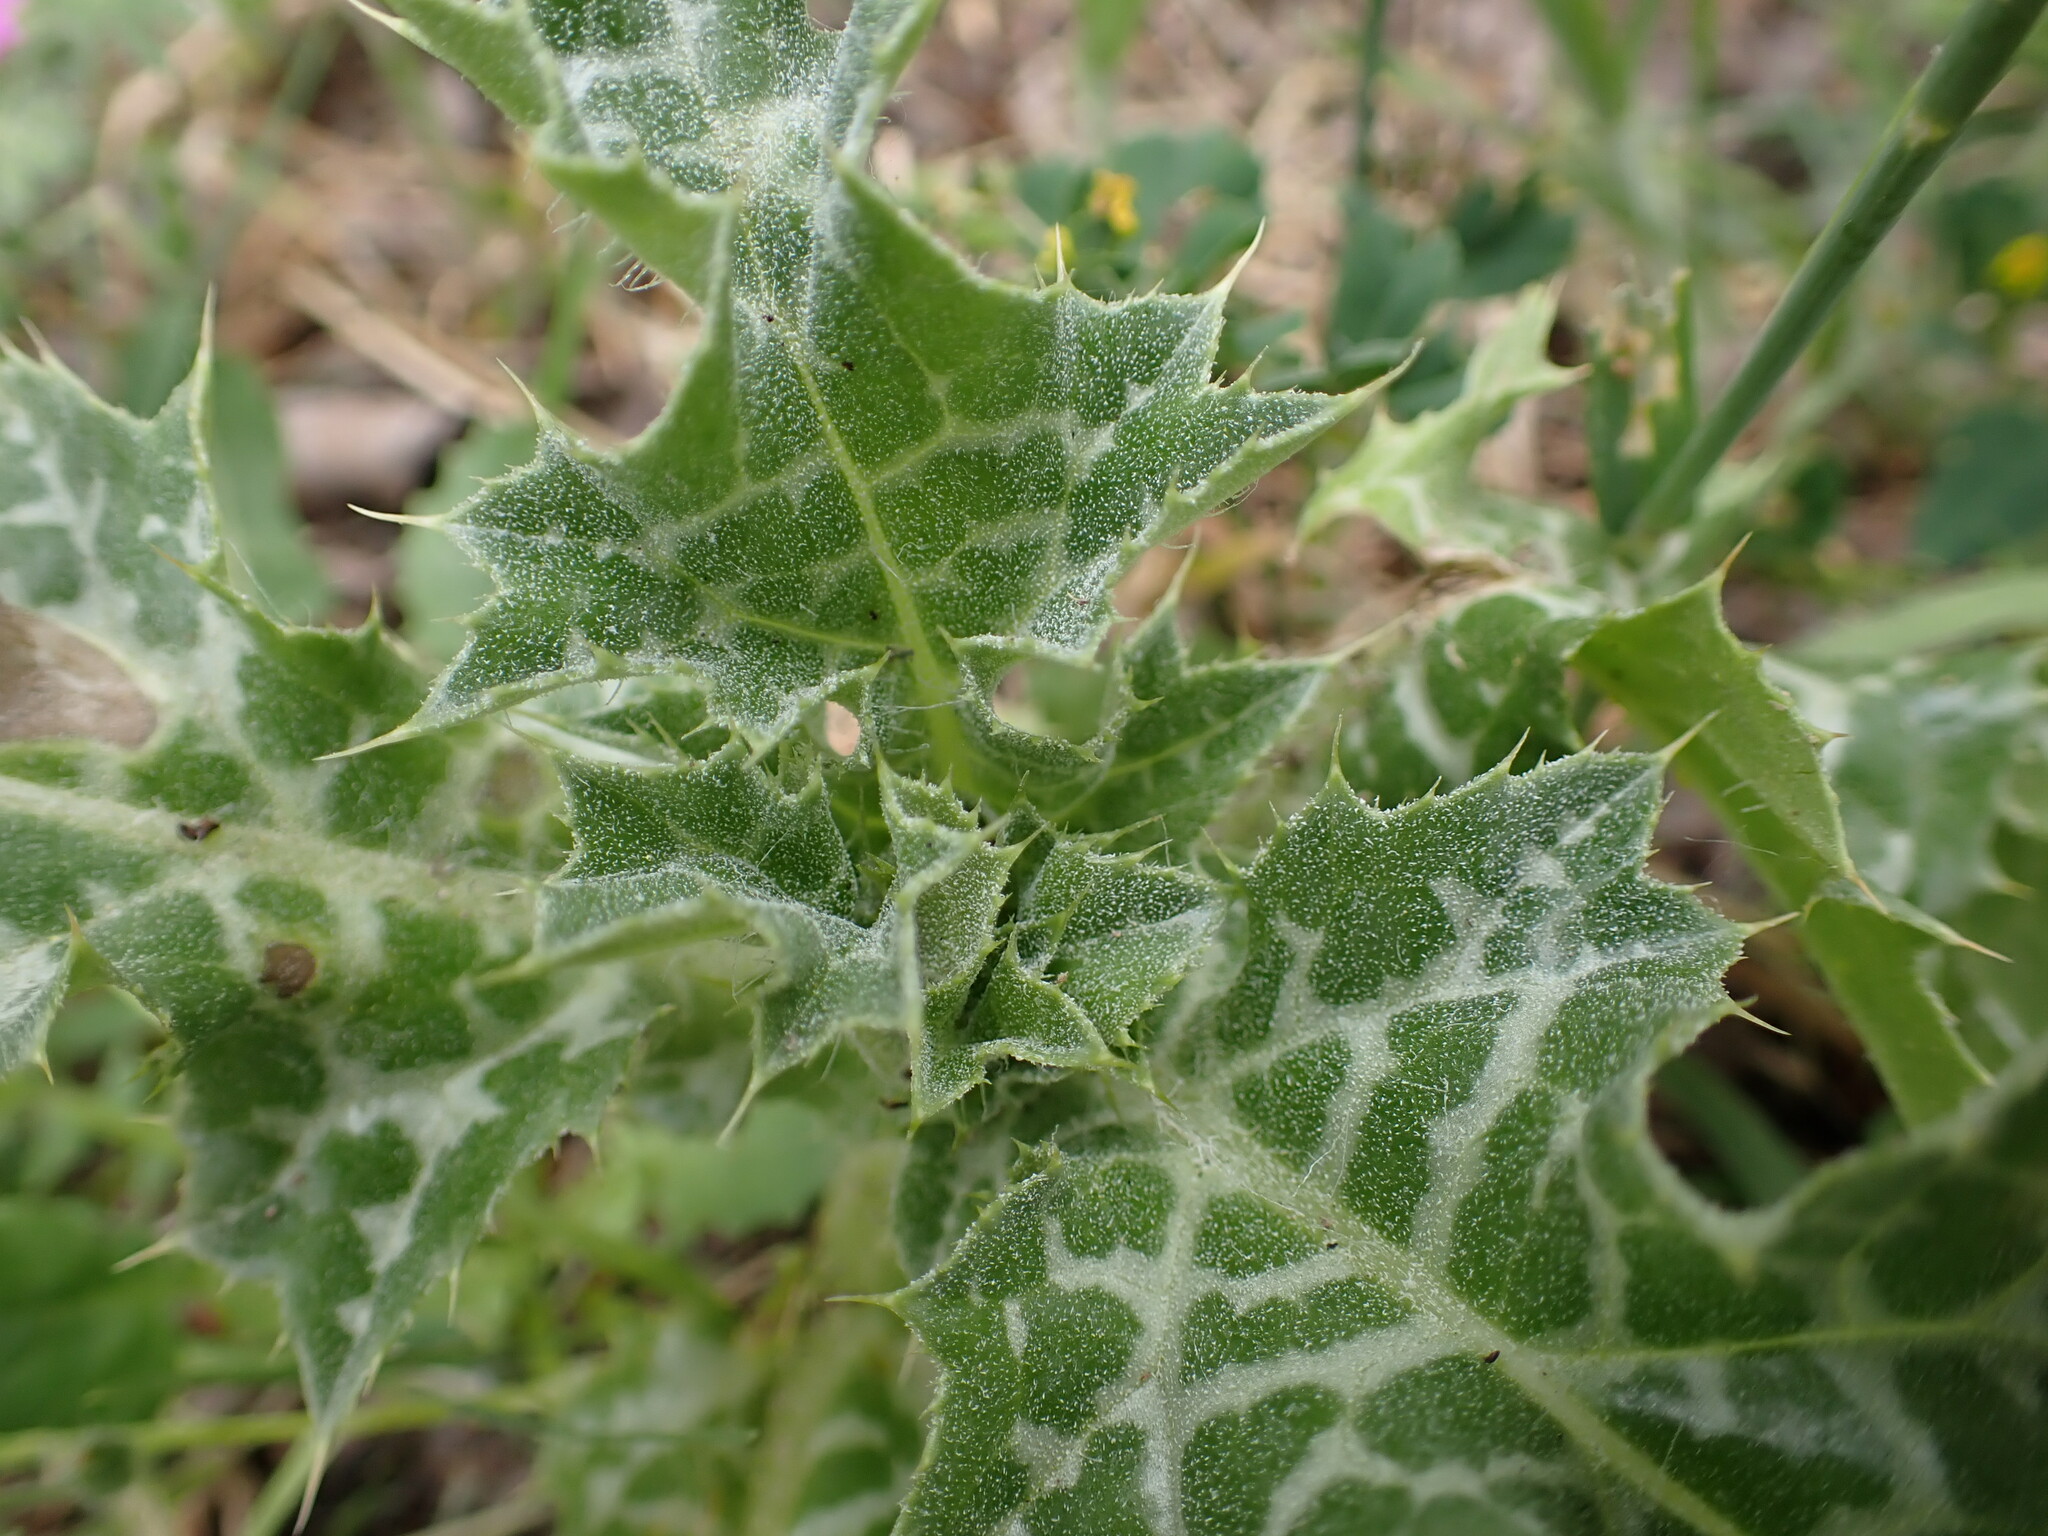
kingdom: Plantae
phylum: Tracheophyta
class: Magnoliopsida
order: Asterales
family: Asteraceae
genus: Silybum
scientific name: Silybum marianum
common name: Milk thistle
